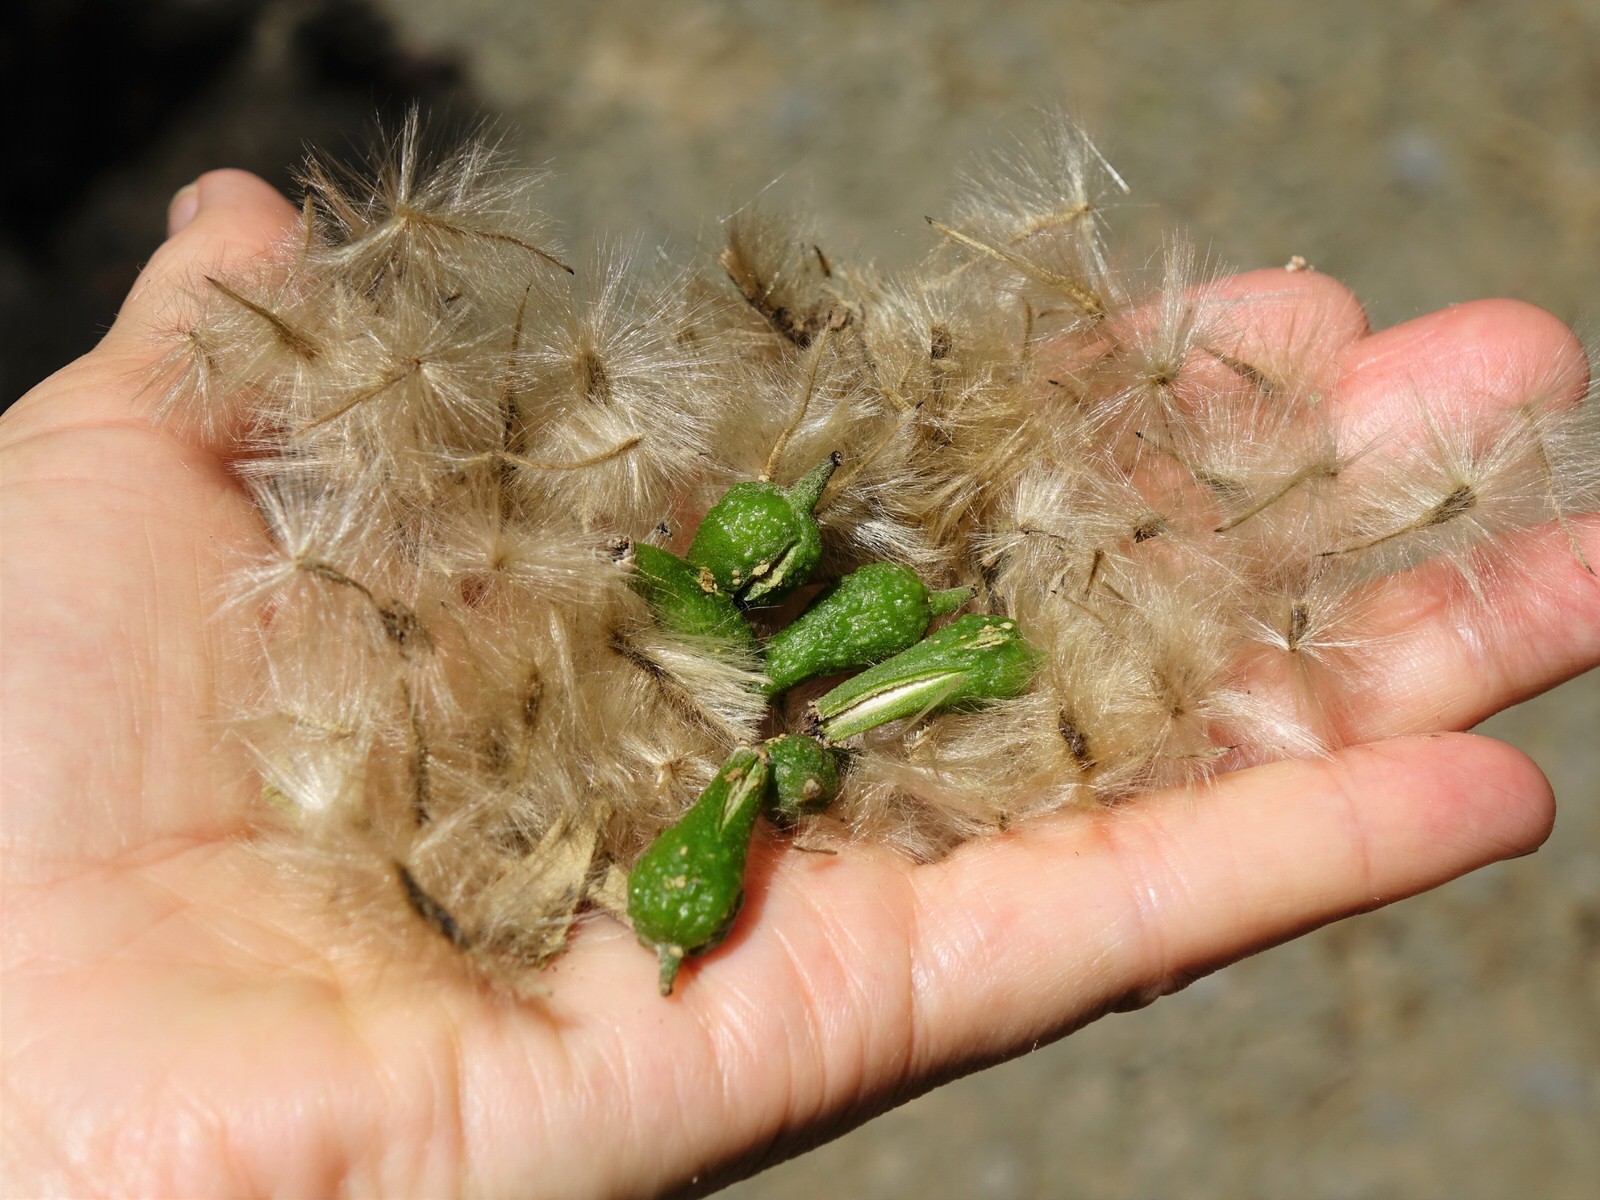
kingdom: Plantae
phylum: Tracheophyta
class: Magnoliopsida
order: Laurales
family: Atherospermataceae
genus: Laurelia
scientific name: Laurelia novae-zelandiae
